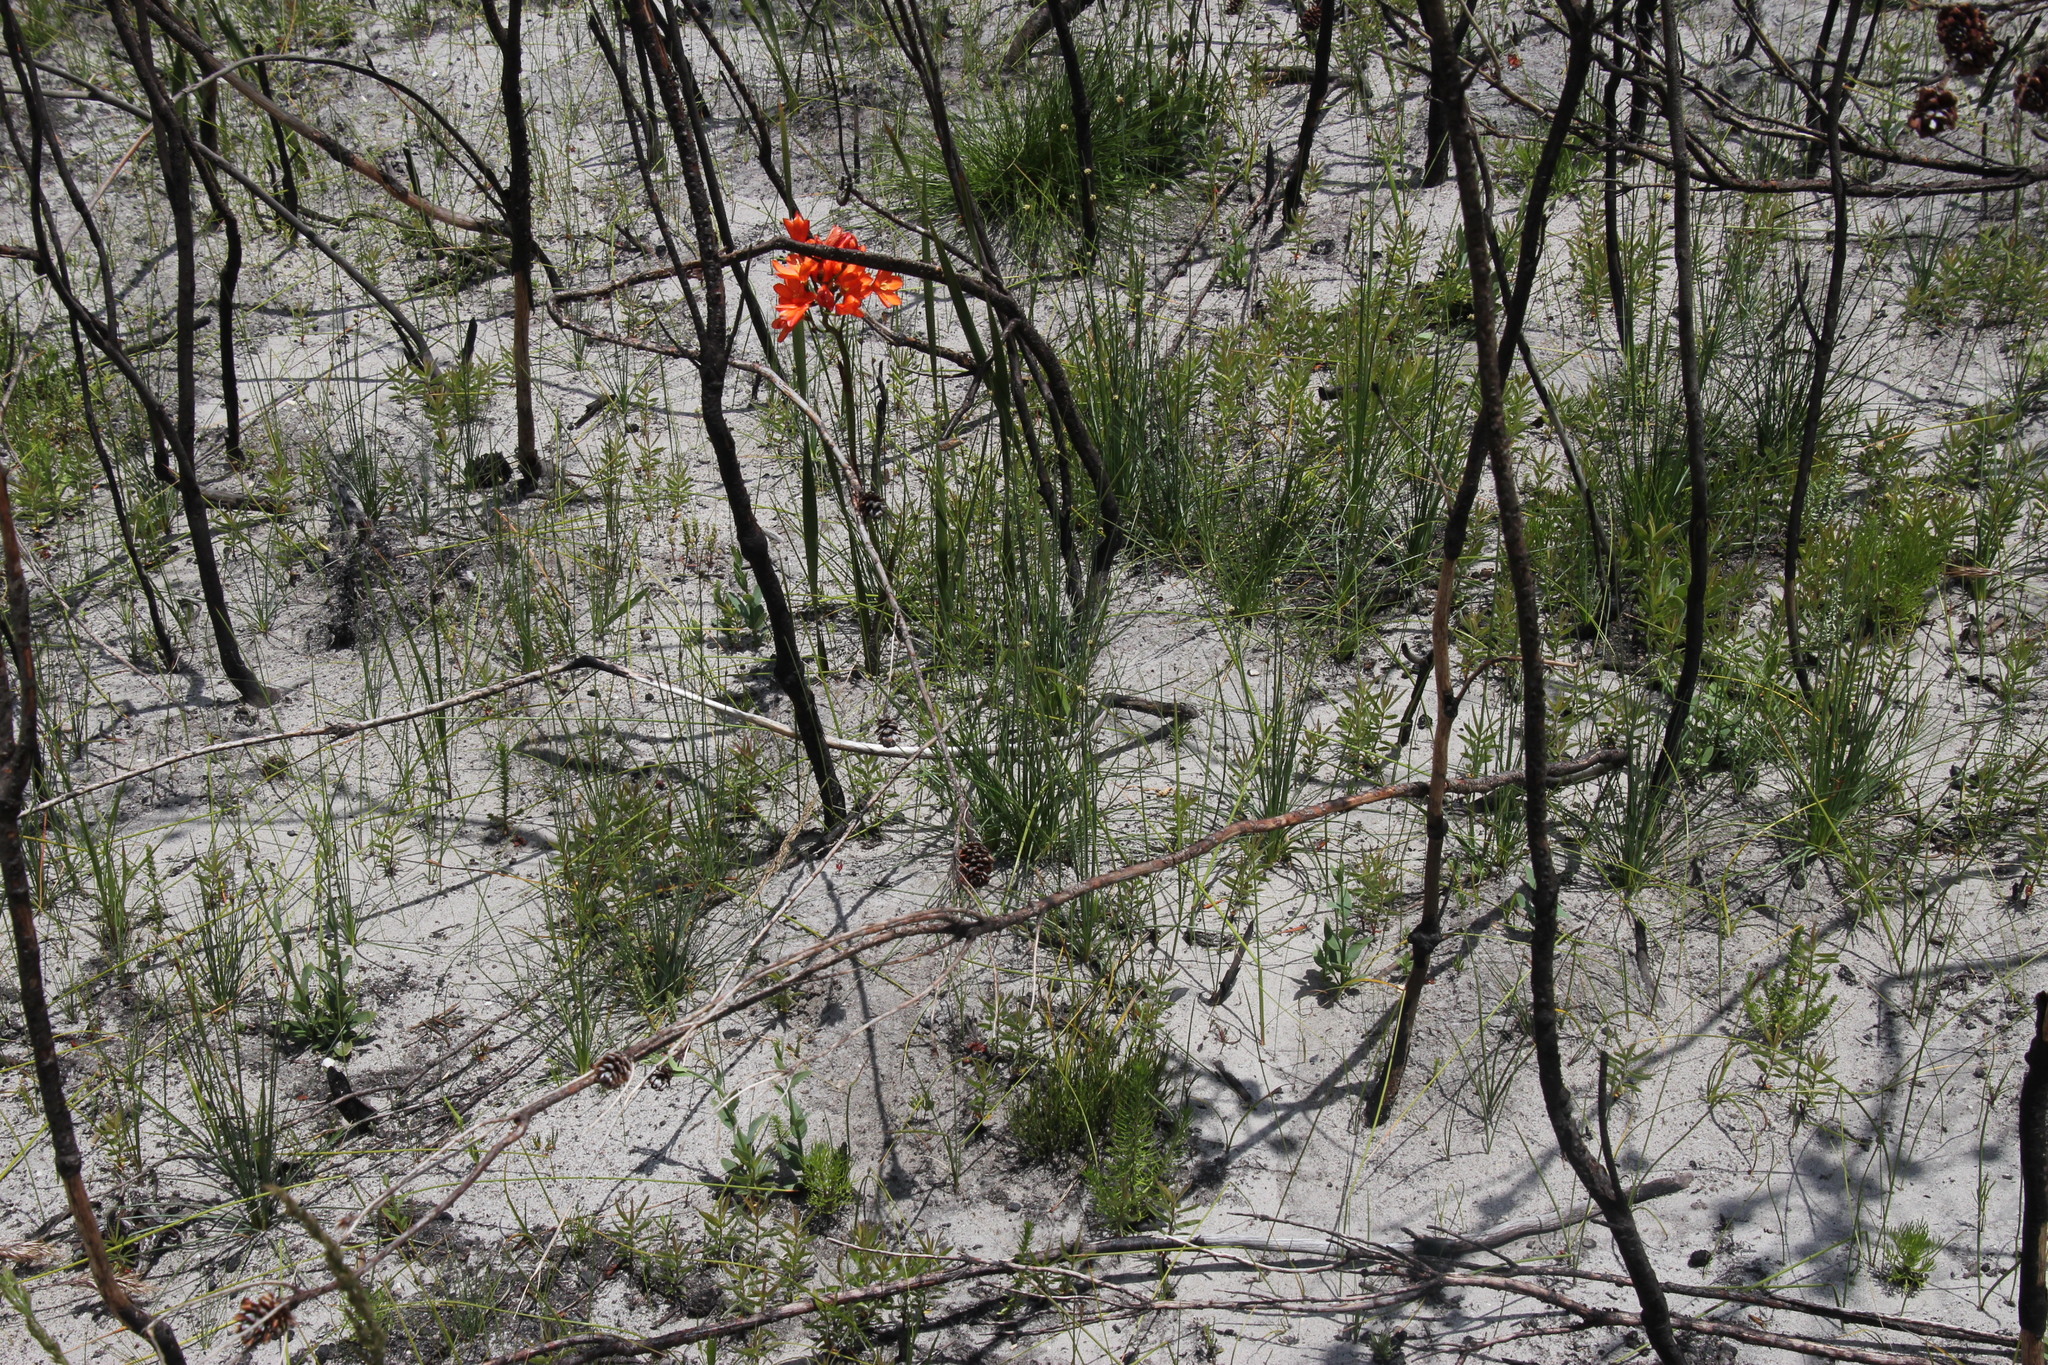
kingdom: Plantae
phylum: Tracheophyta
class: Liliopsida
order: Poales
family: Cyperaceae
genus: Ficinia
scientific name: Ficinia indica
